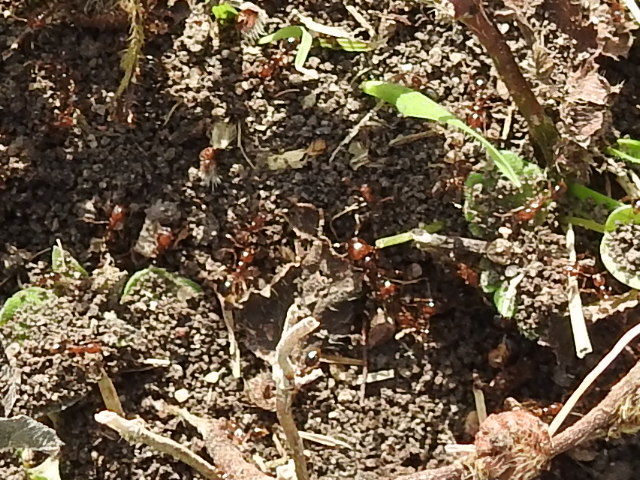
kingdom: Animalia
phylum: Arthropoda
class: Insecta
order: Hymenoptera
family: Formicidae
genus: Solenopsis
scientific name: Solenopsis invicta
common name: Red imported fire ant
